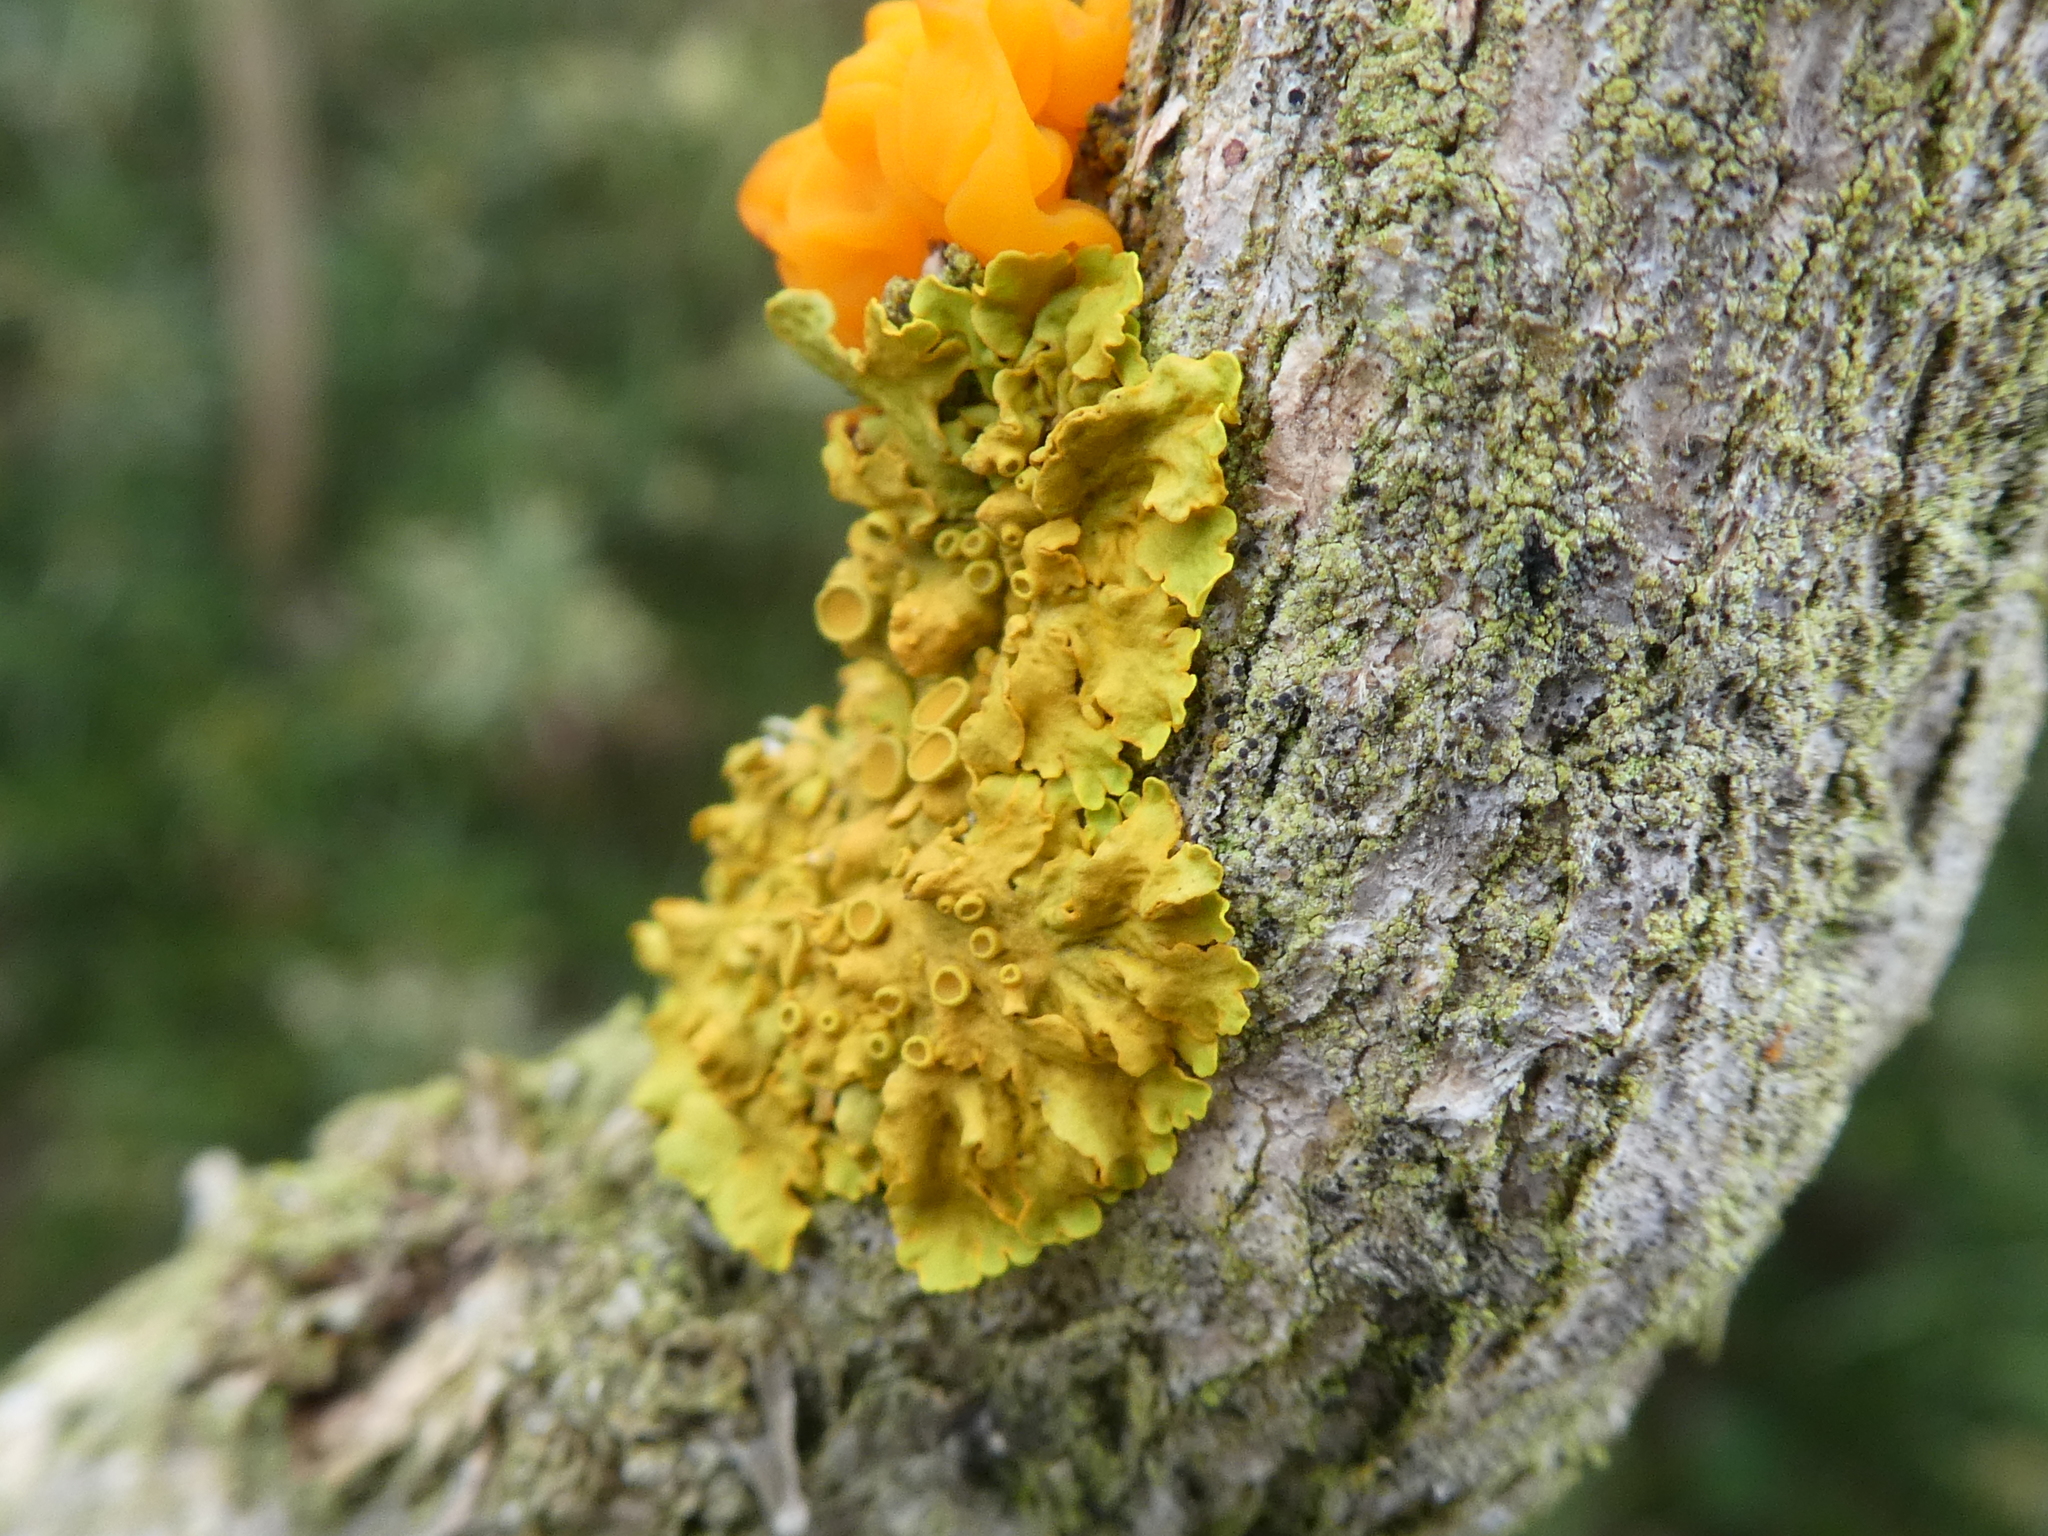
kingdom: Fungi
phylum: Ascomycota
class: Lecanoromycetes
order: Teloschistales
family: Teloschistaceae
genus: Xanthoria
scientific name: Xanthoria parietina
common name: Common orange lichen
